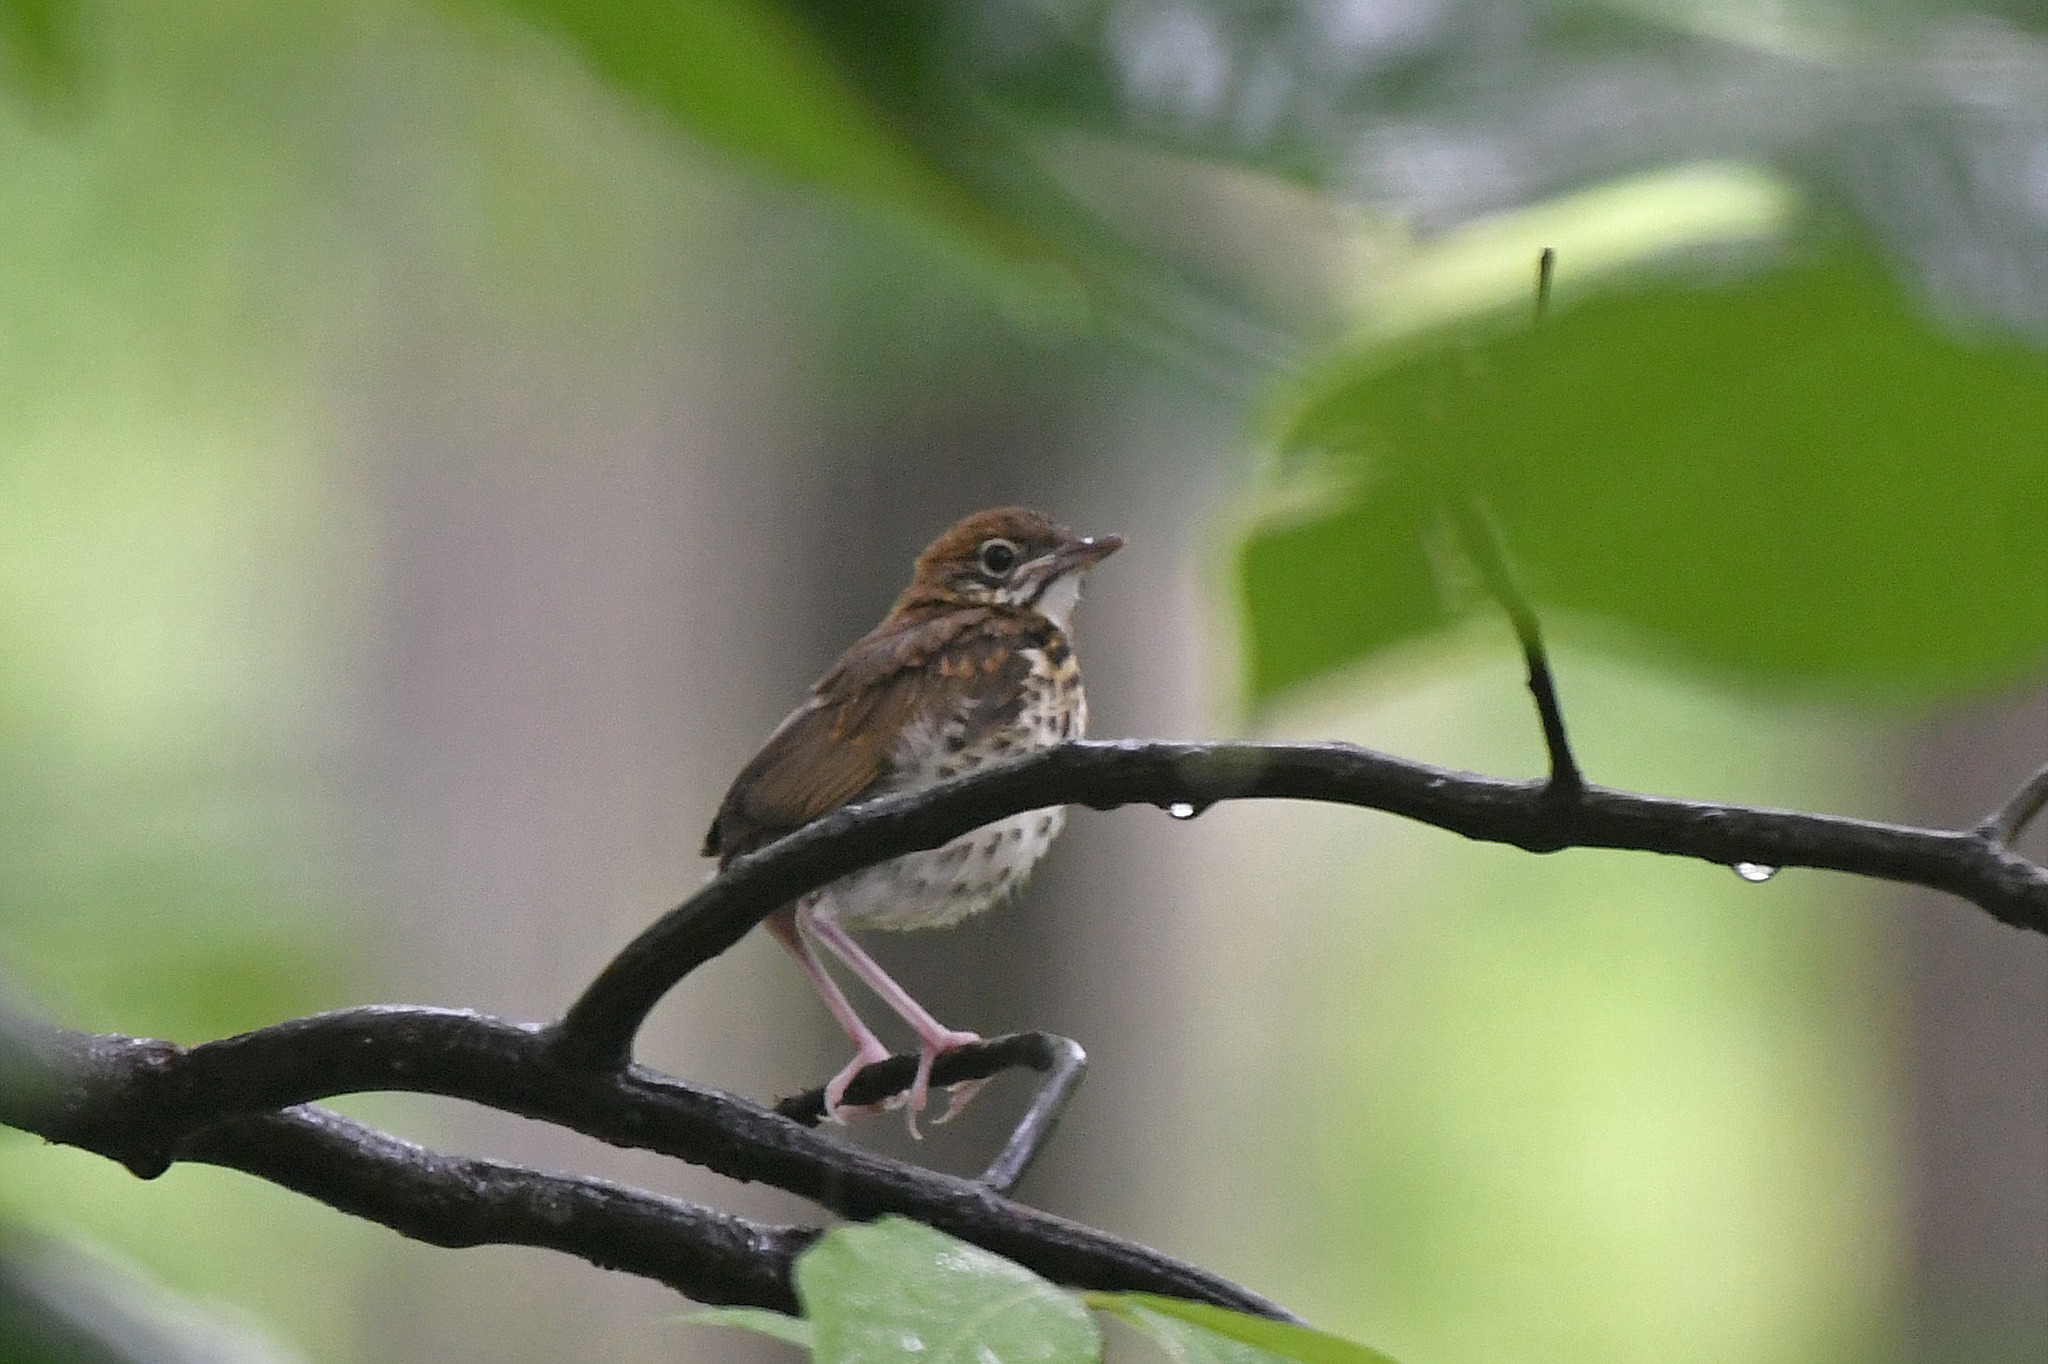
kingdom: Animalia
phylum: Chordata
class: Aves
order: Passeriformes
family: Turdidae
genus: Hylocichla
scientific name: Hylocichla mustelina
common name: Wood thrush
